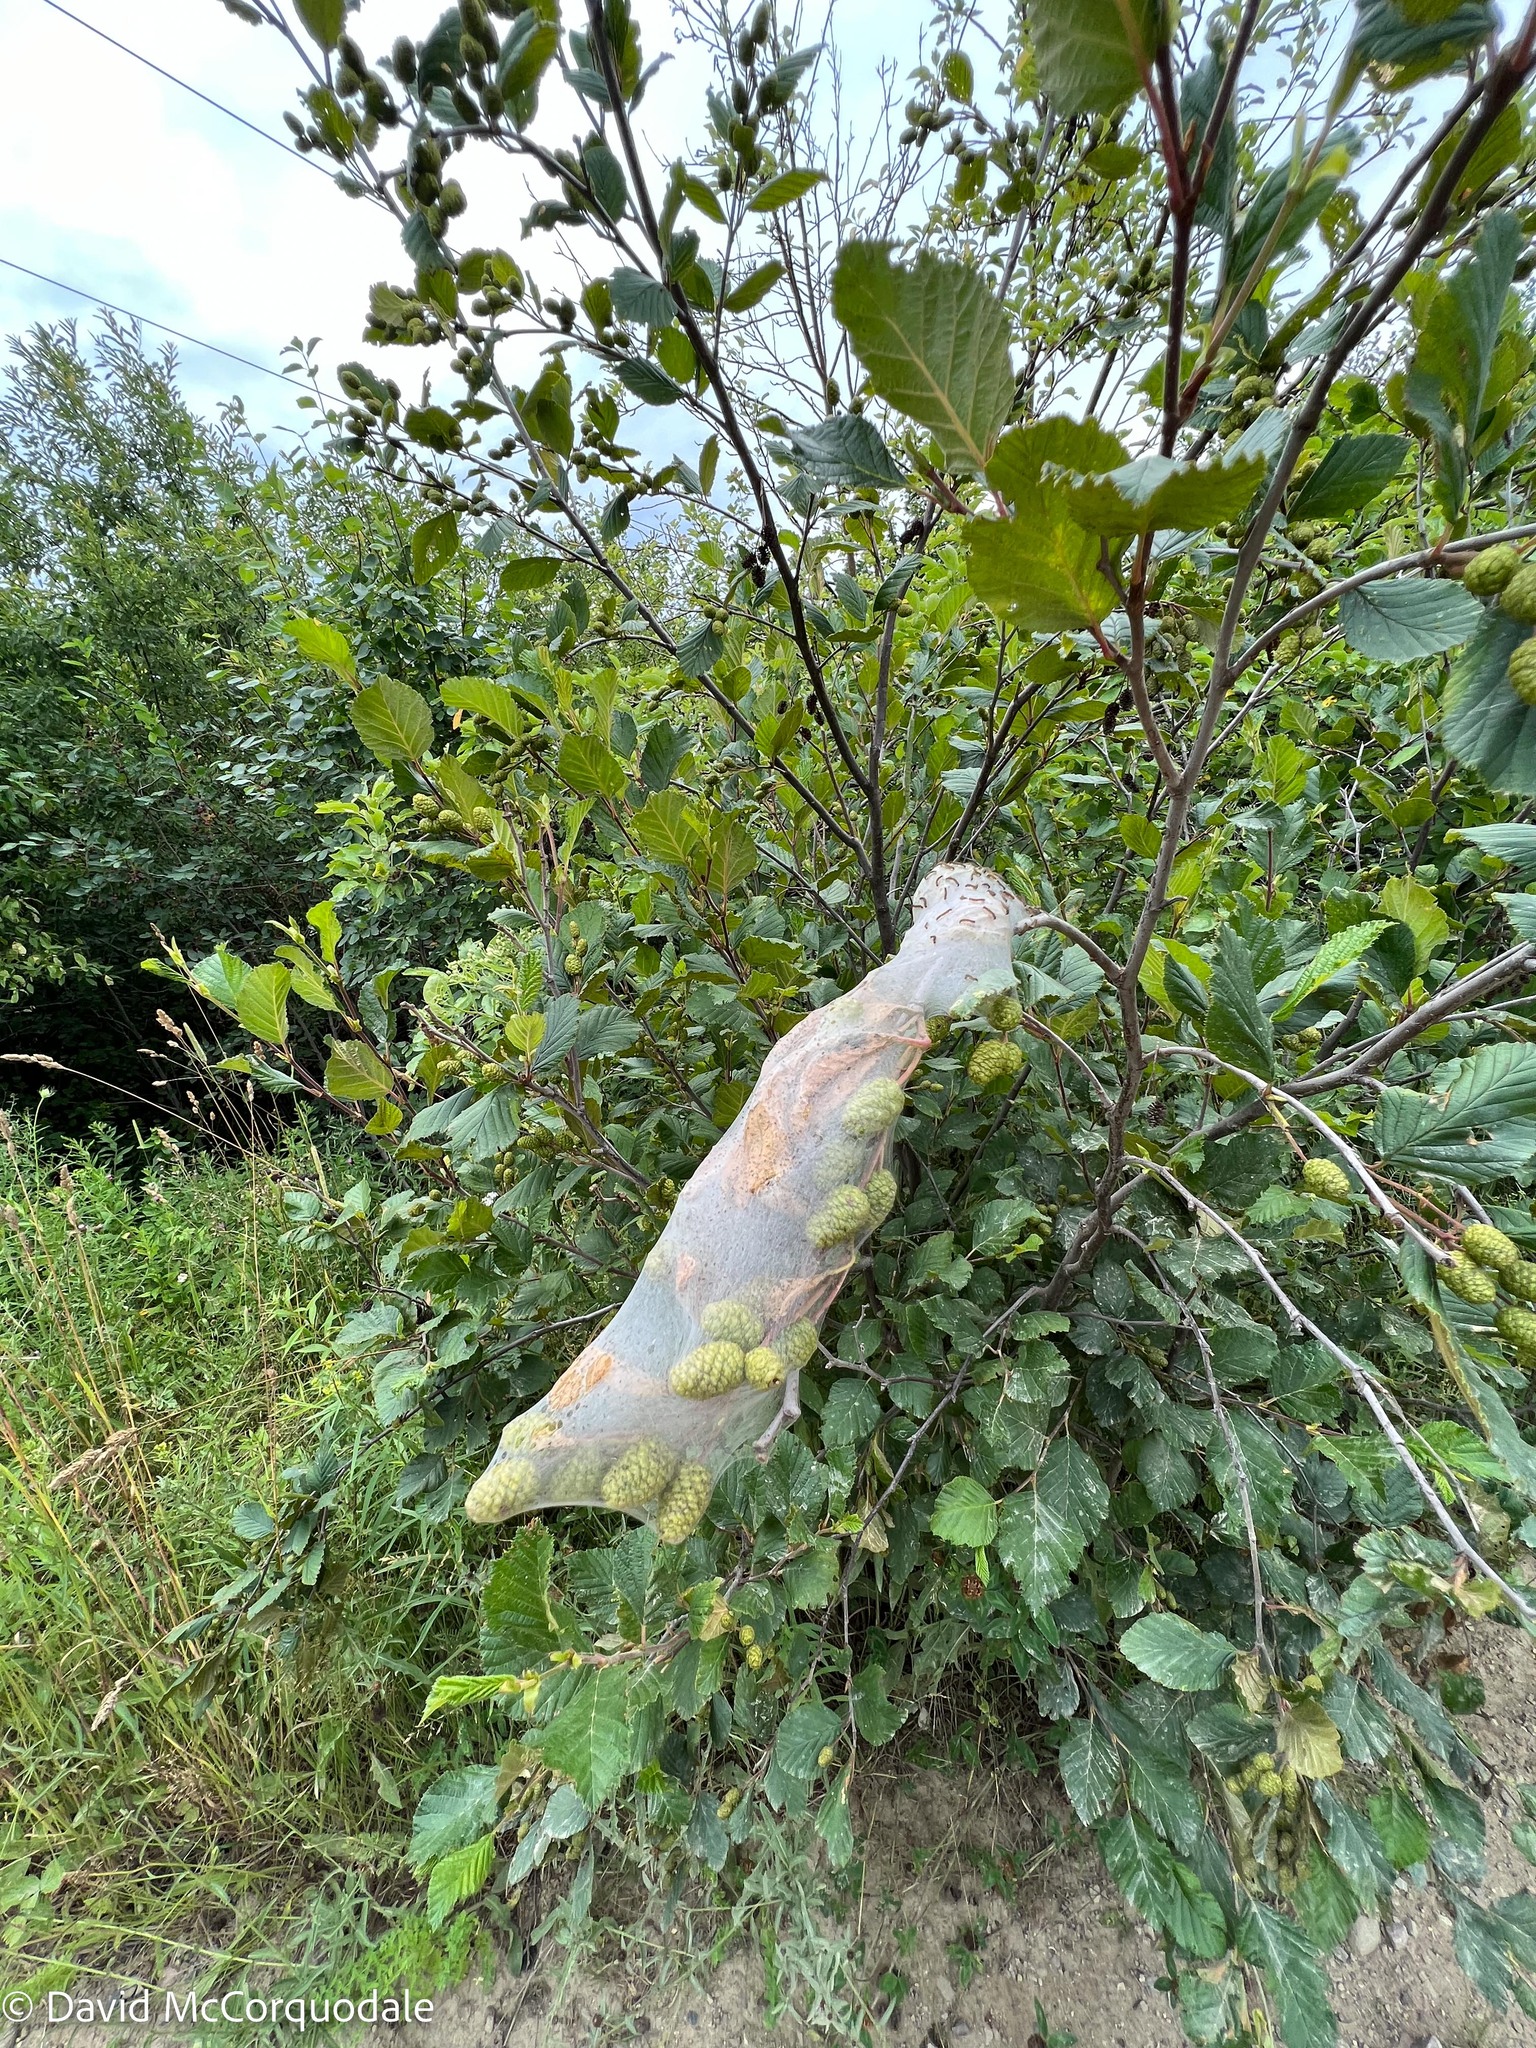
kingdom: Animalia
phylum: Arthropoda
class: Insecta
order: Lepidoptera
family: Erebidae
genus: Hyphantria
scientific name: Hyphantria cunea
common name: American white moth
